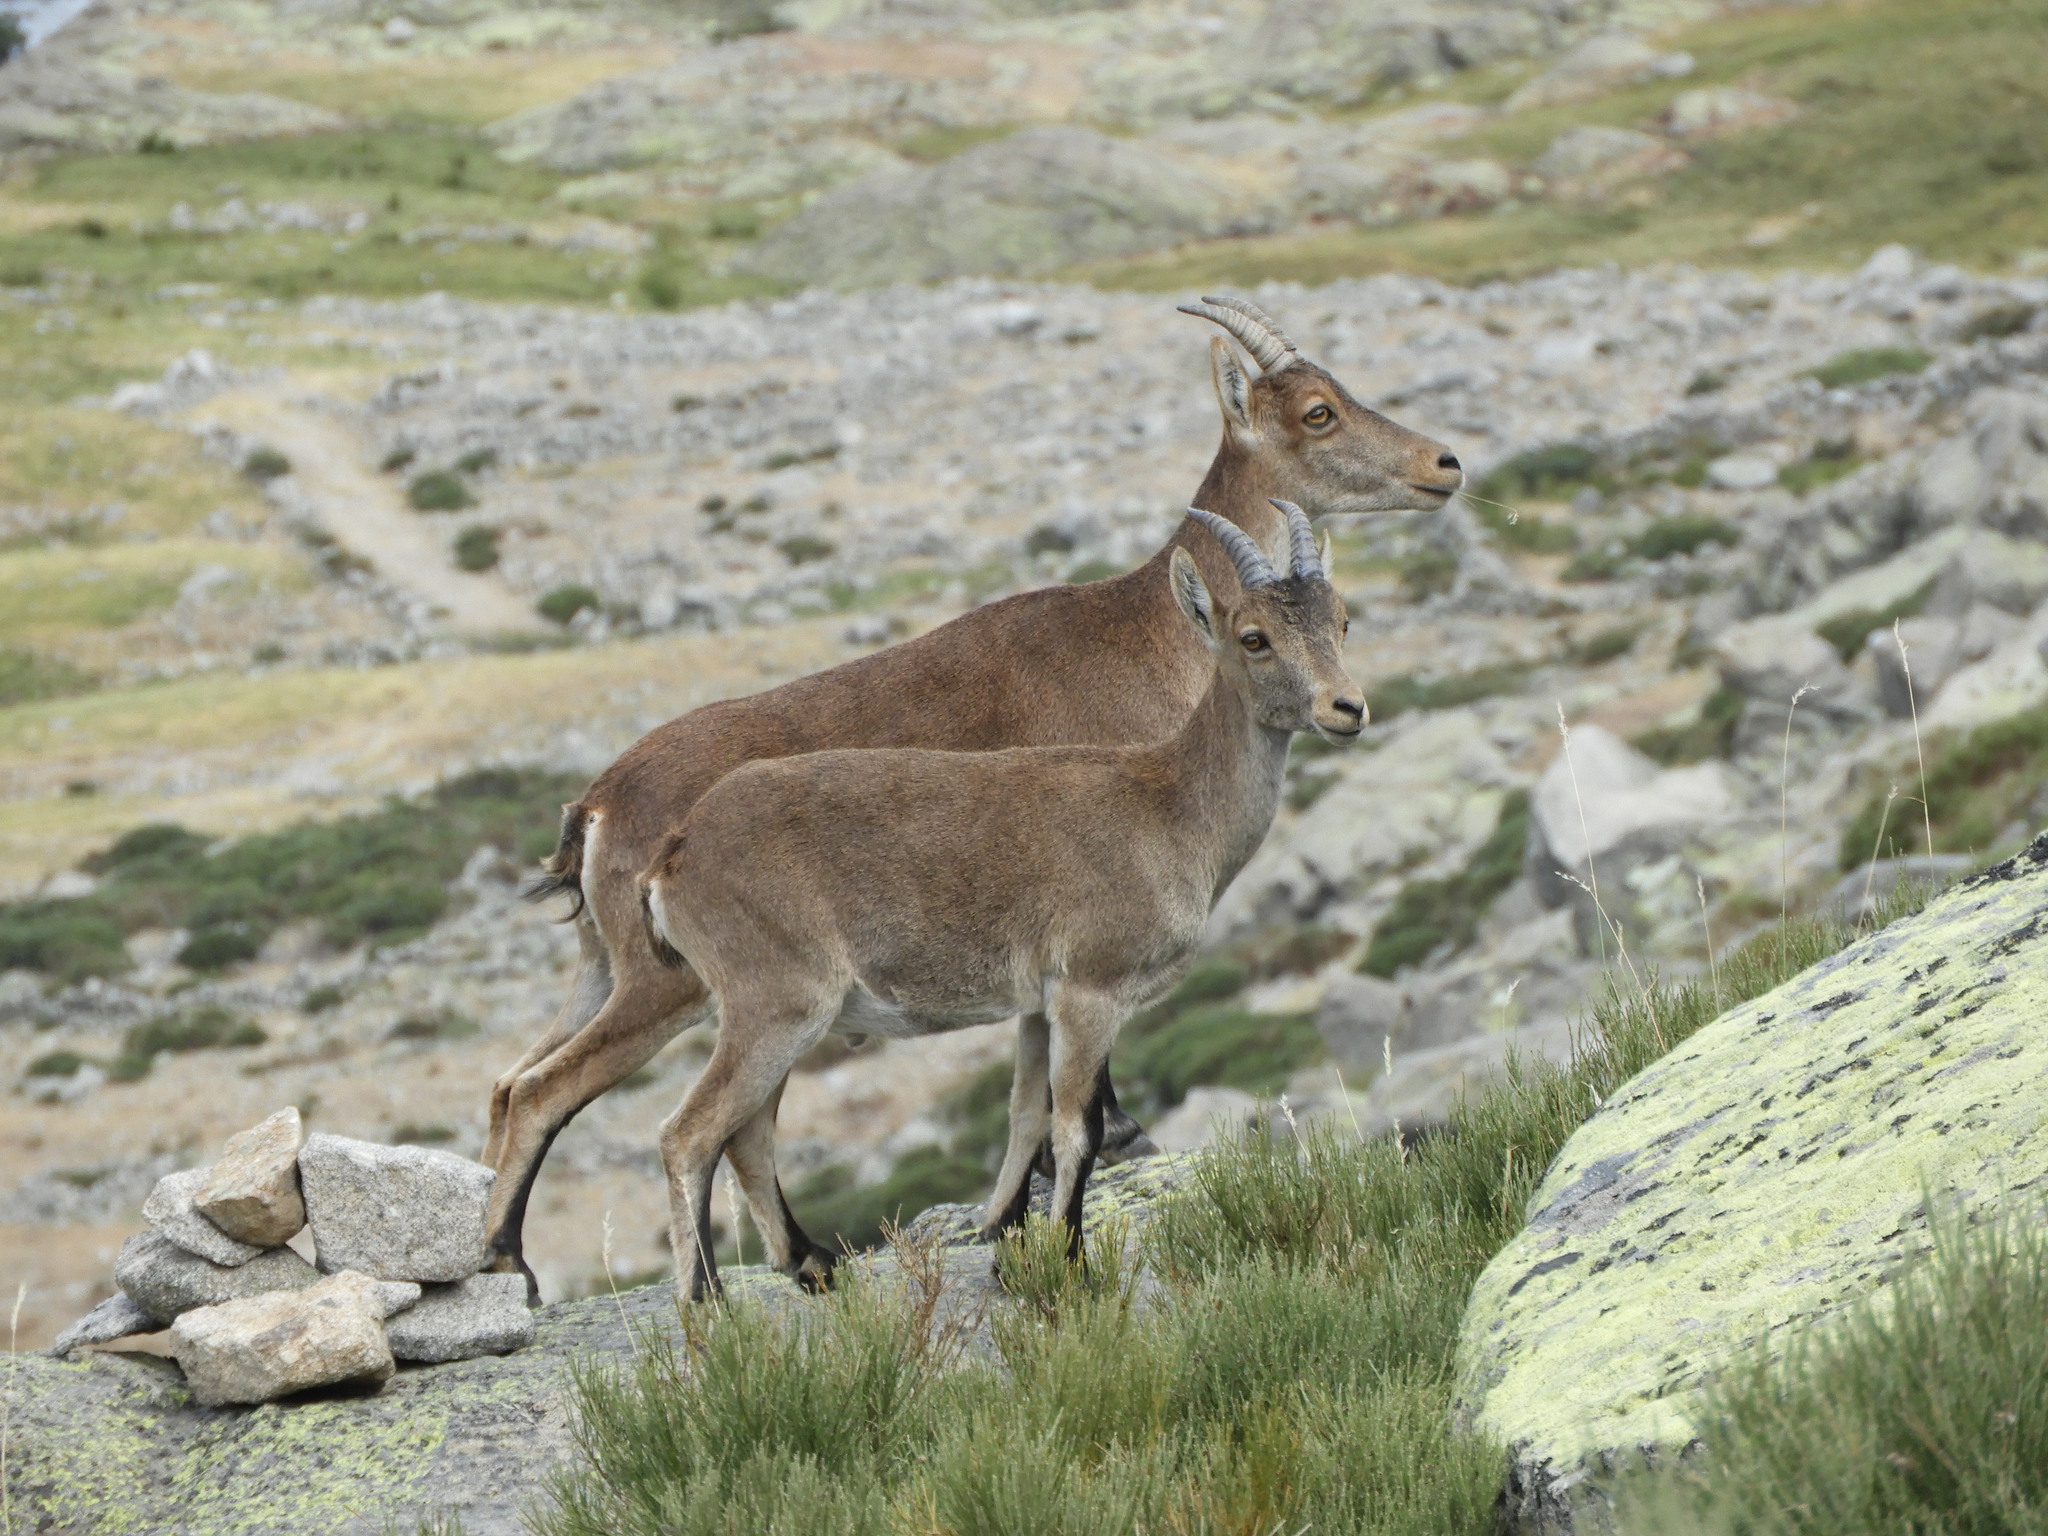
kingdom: Animalia
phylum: Chordata
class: Mammalia
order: Artiodactyla
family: Bovidae
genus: Capra
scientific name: Capra pyrenaica
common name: Spanish ibex
